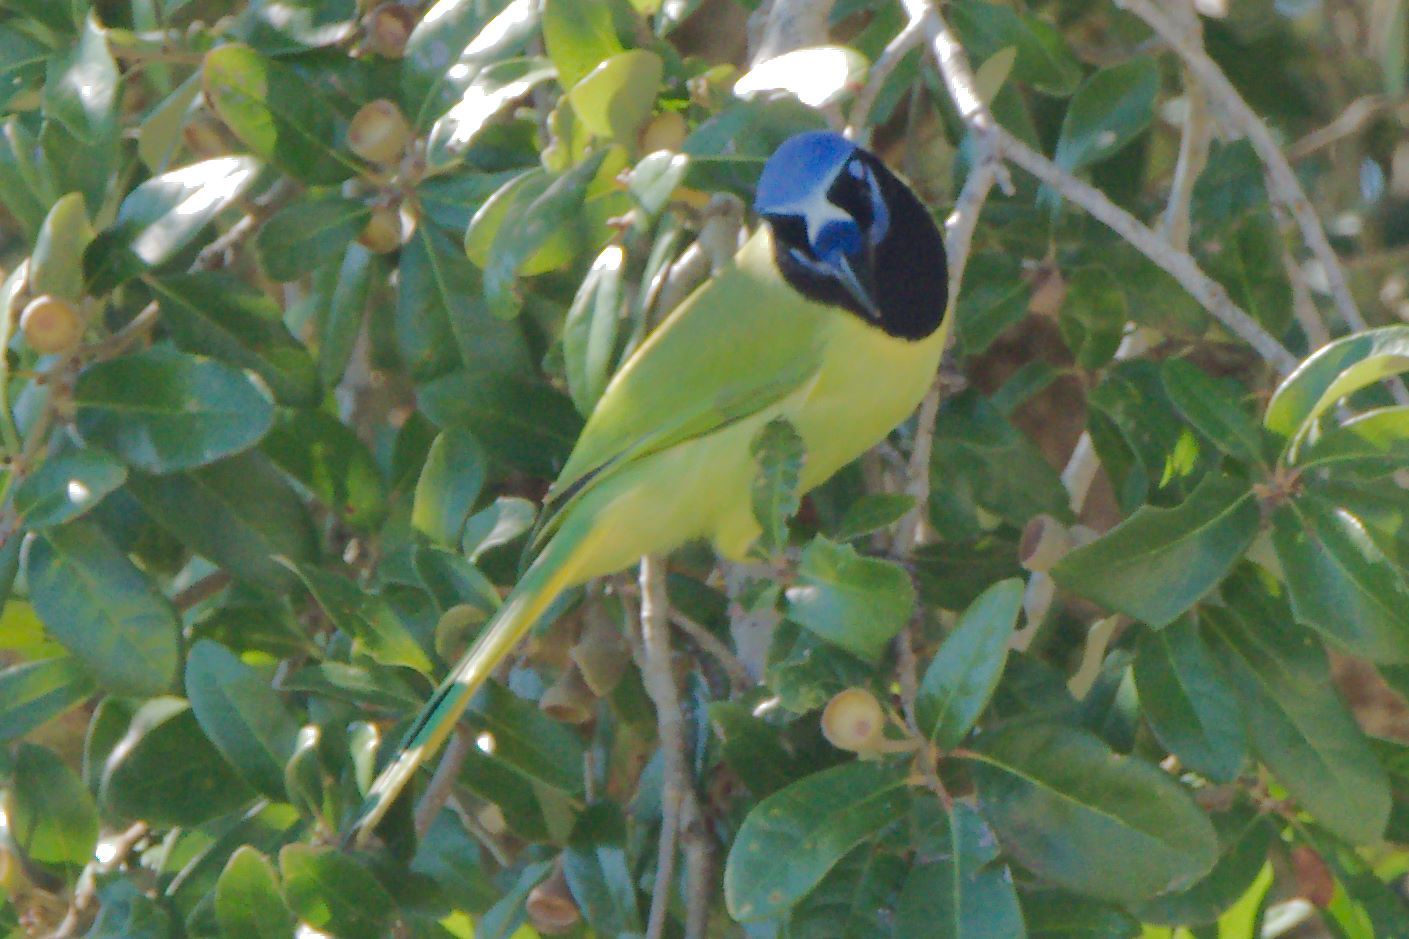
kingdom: Animalia
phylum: Chordata
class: Aves
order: Passeriformes
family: Corvidae
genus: Cyanocorax
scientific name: Cyanocorax yncas
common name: Green jay
